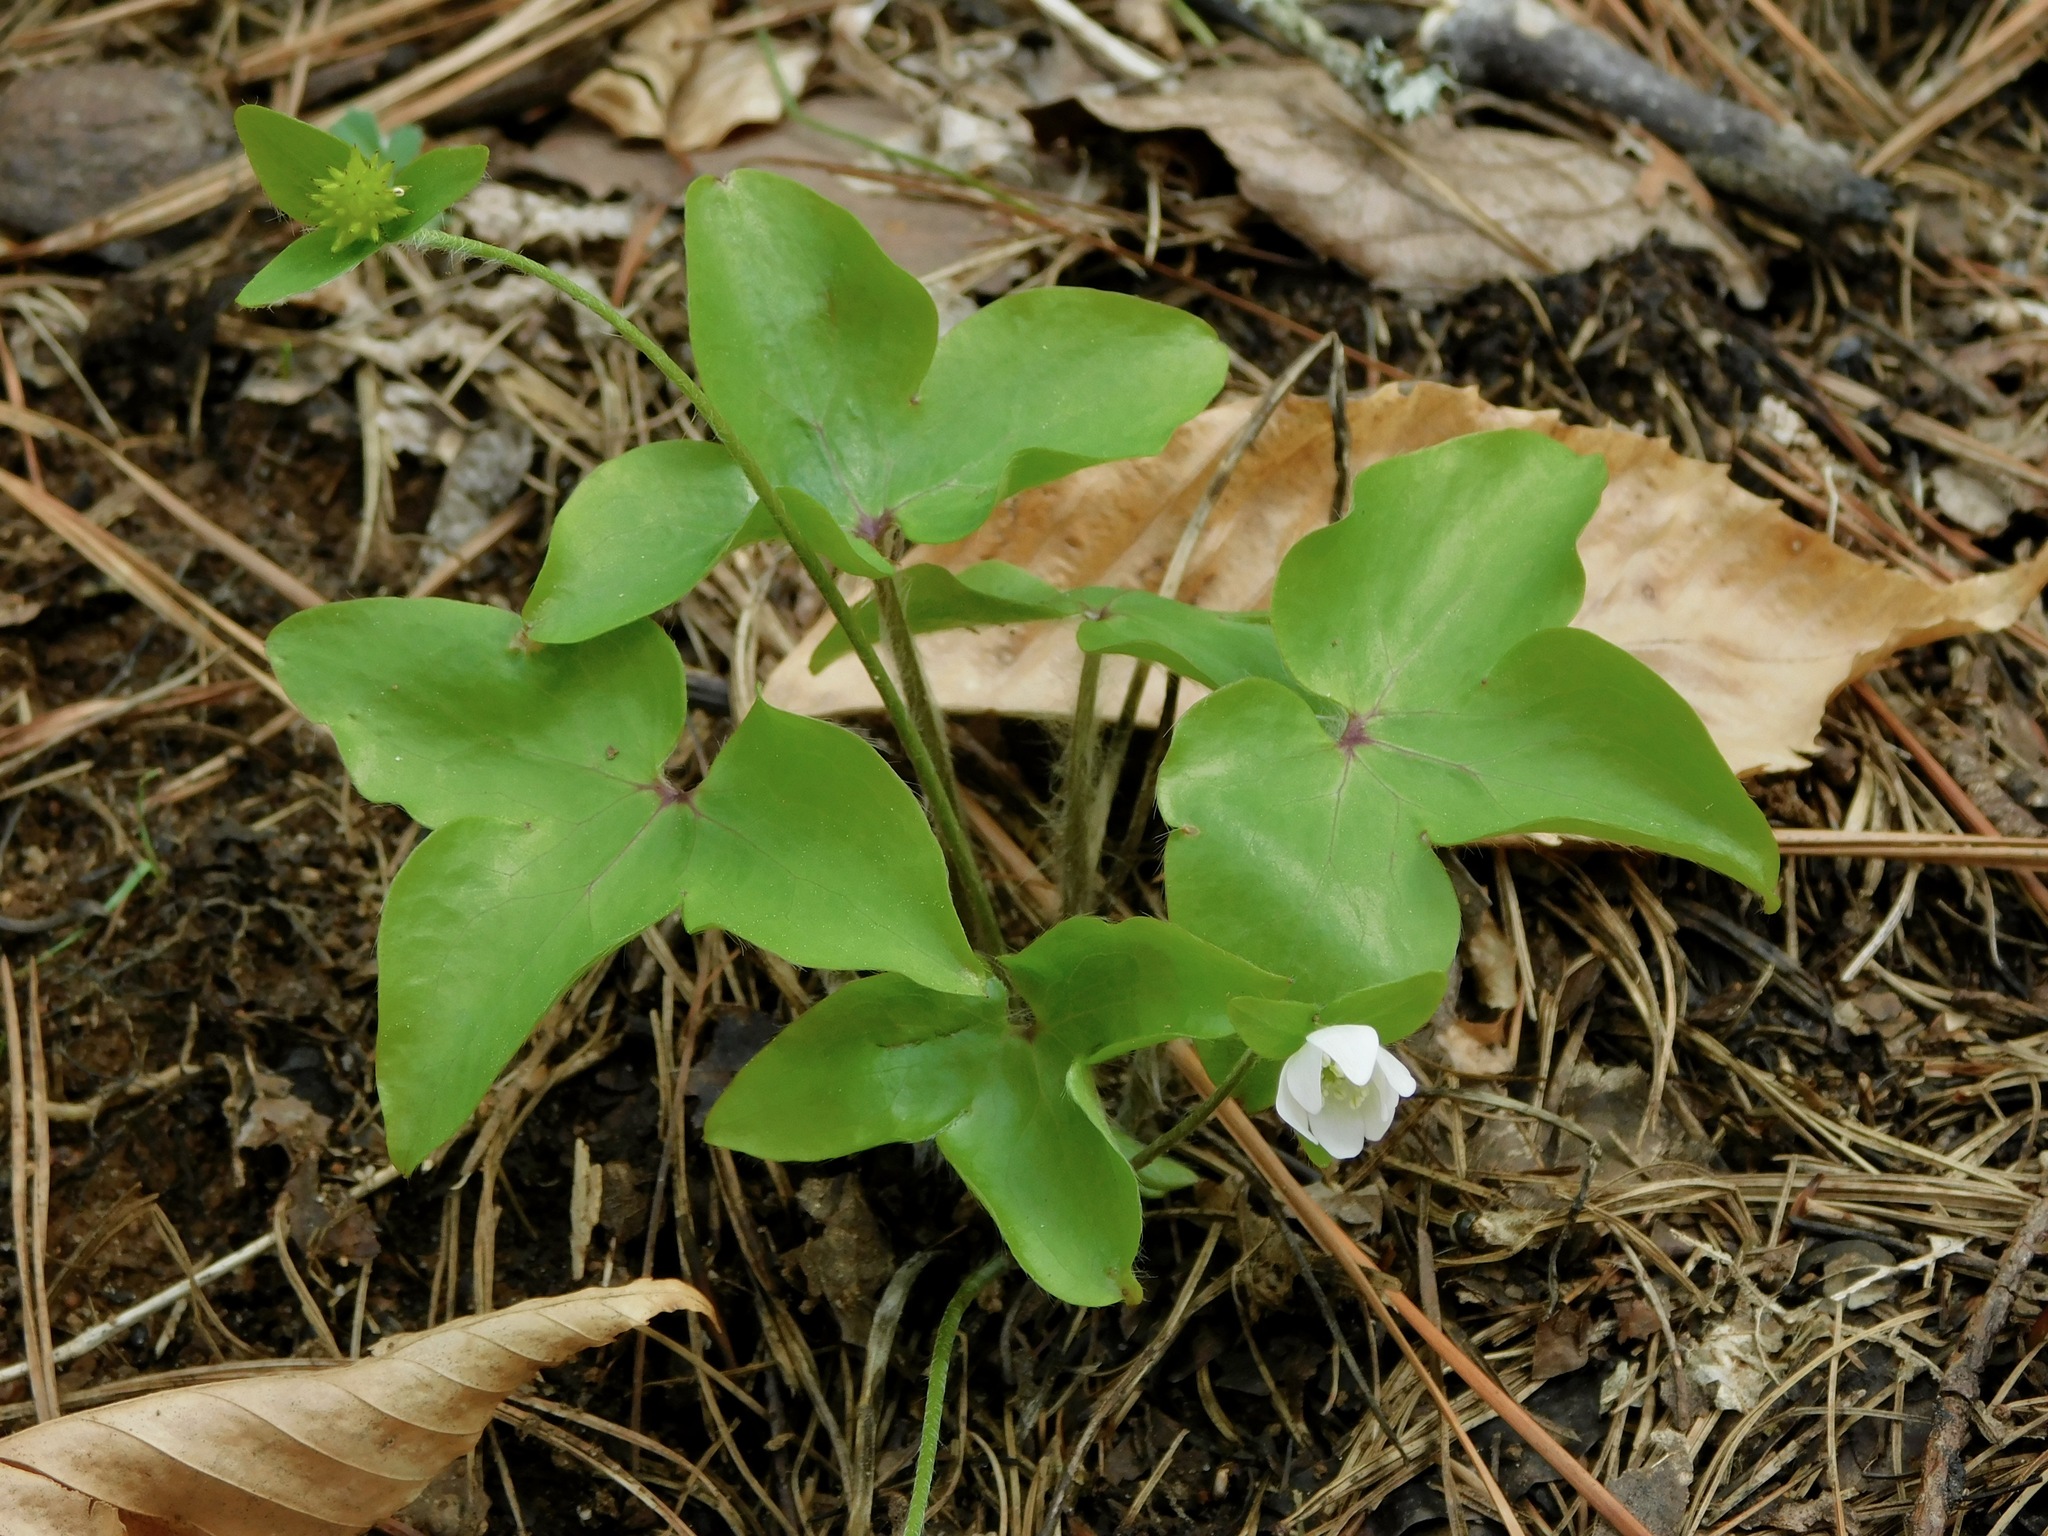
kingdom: Plantae
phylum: Tracheophyta
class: Magnoliopsida
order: Ranunculales
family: Ranunculaceae
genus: Hepatica
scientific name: Hepatica acutiloba
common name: Sharp-lobed hepatica
